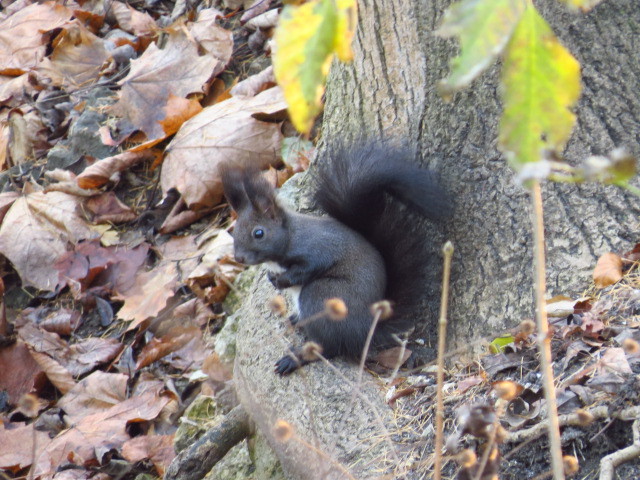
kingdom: Animalia
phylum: Chordata
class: Mammalia
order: Rodentia
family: Sciuridae
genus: Sciurus
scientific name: Sciurus vulgaris
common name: Eurasian red squirrel
